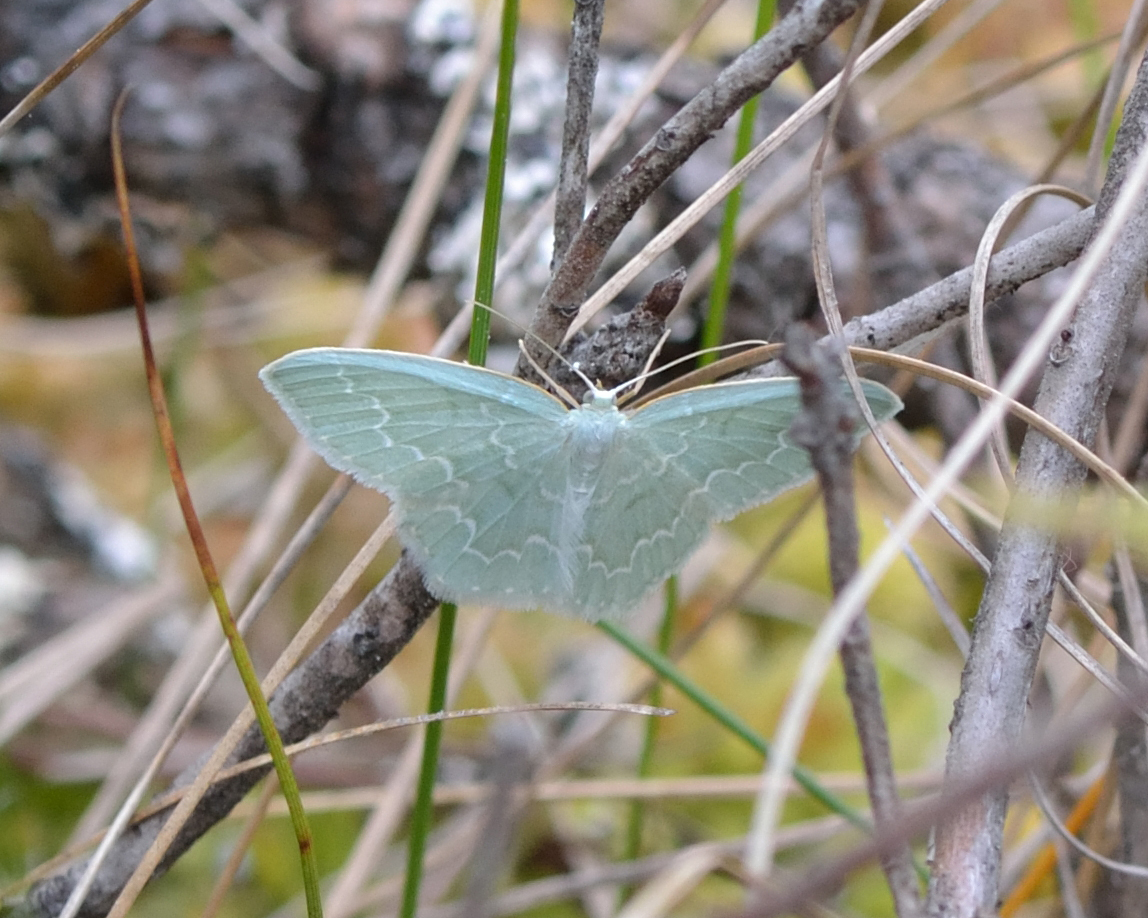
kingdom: Animalia
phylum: Arthropoda
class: Insecta
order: Lepidoptera
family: Geometridae
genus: Jodis
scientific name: Jodis putata
